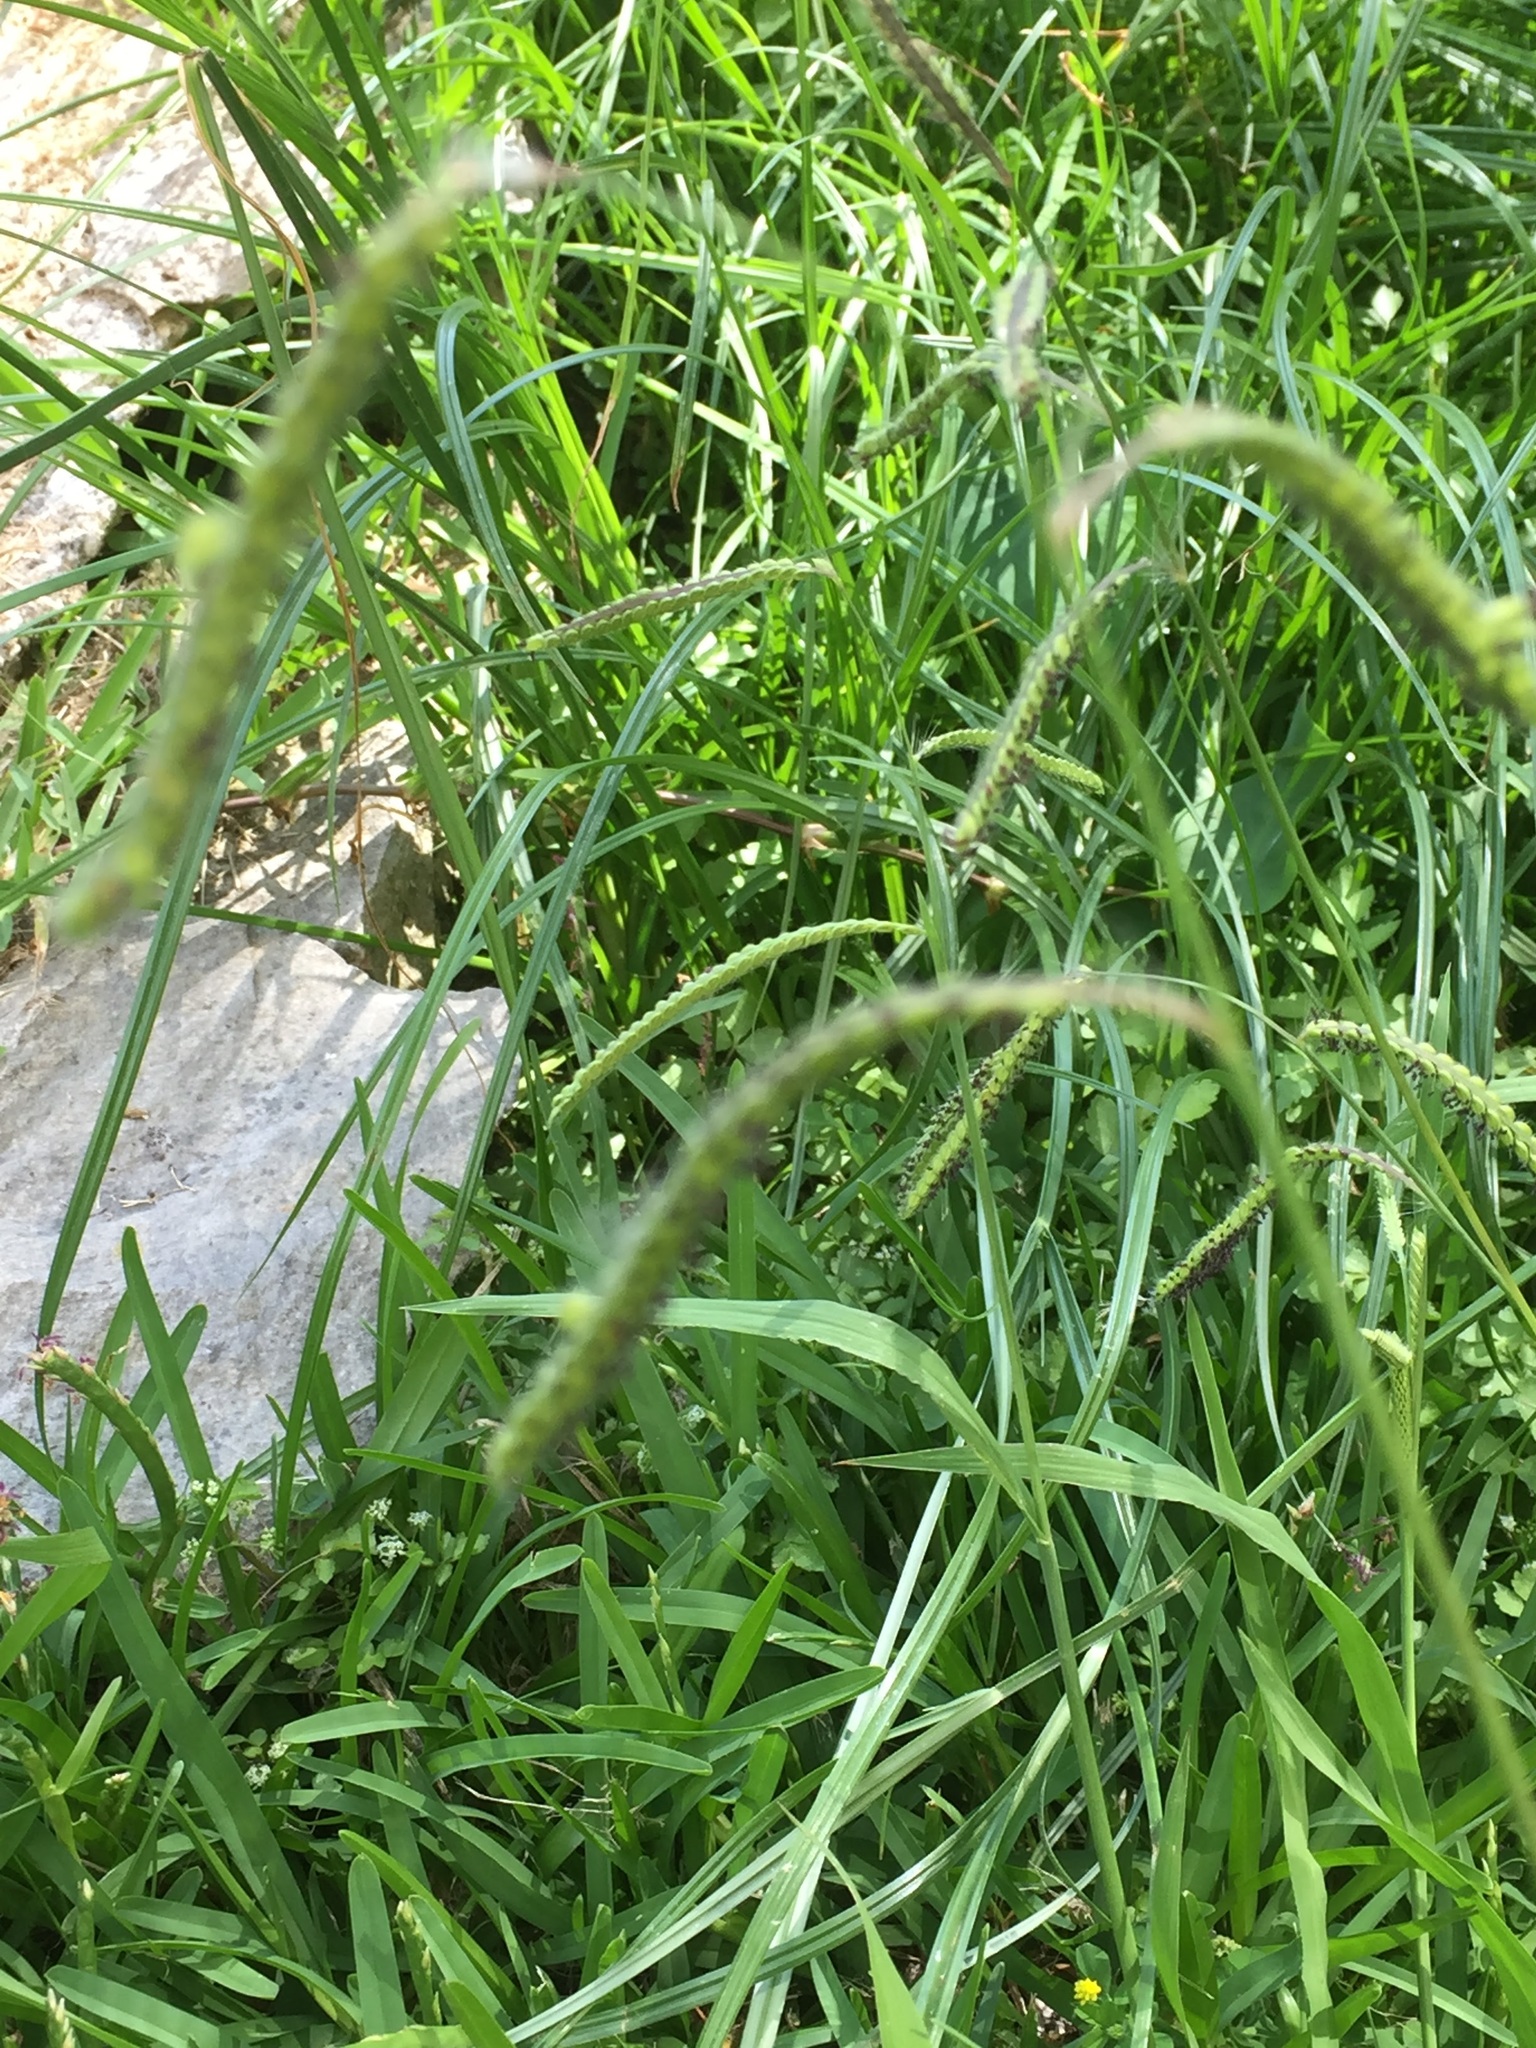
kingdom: Plantae
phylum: Tracheophyta
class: Liliopsida
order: Poales
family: Poaceae
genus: Paspalum
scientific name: Paspalum dilatatum
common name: Dallisgrass
